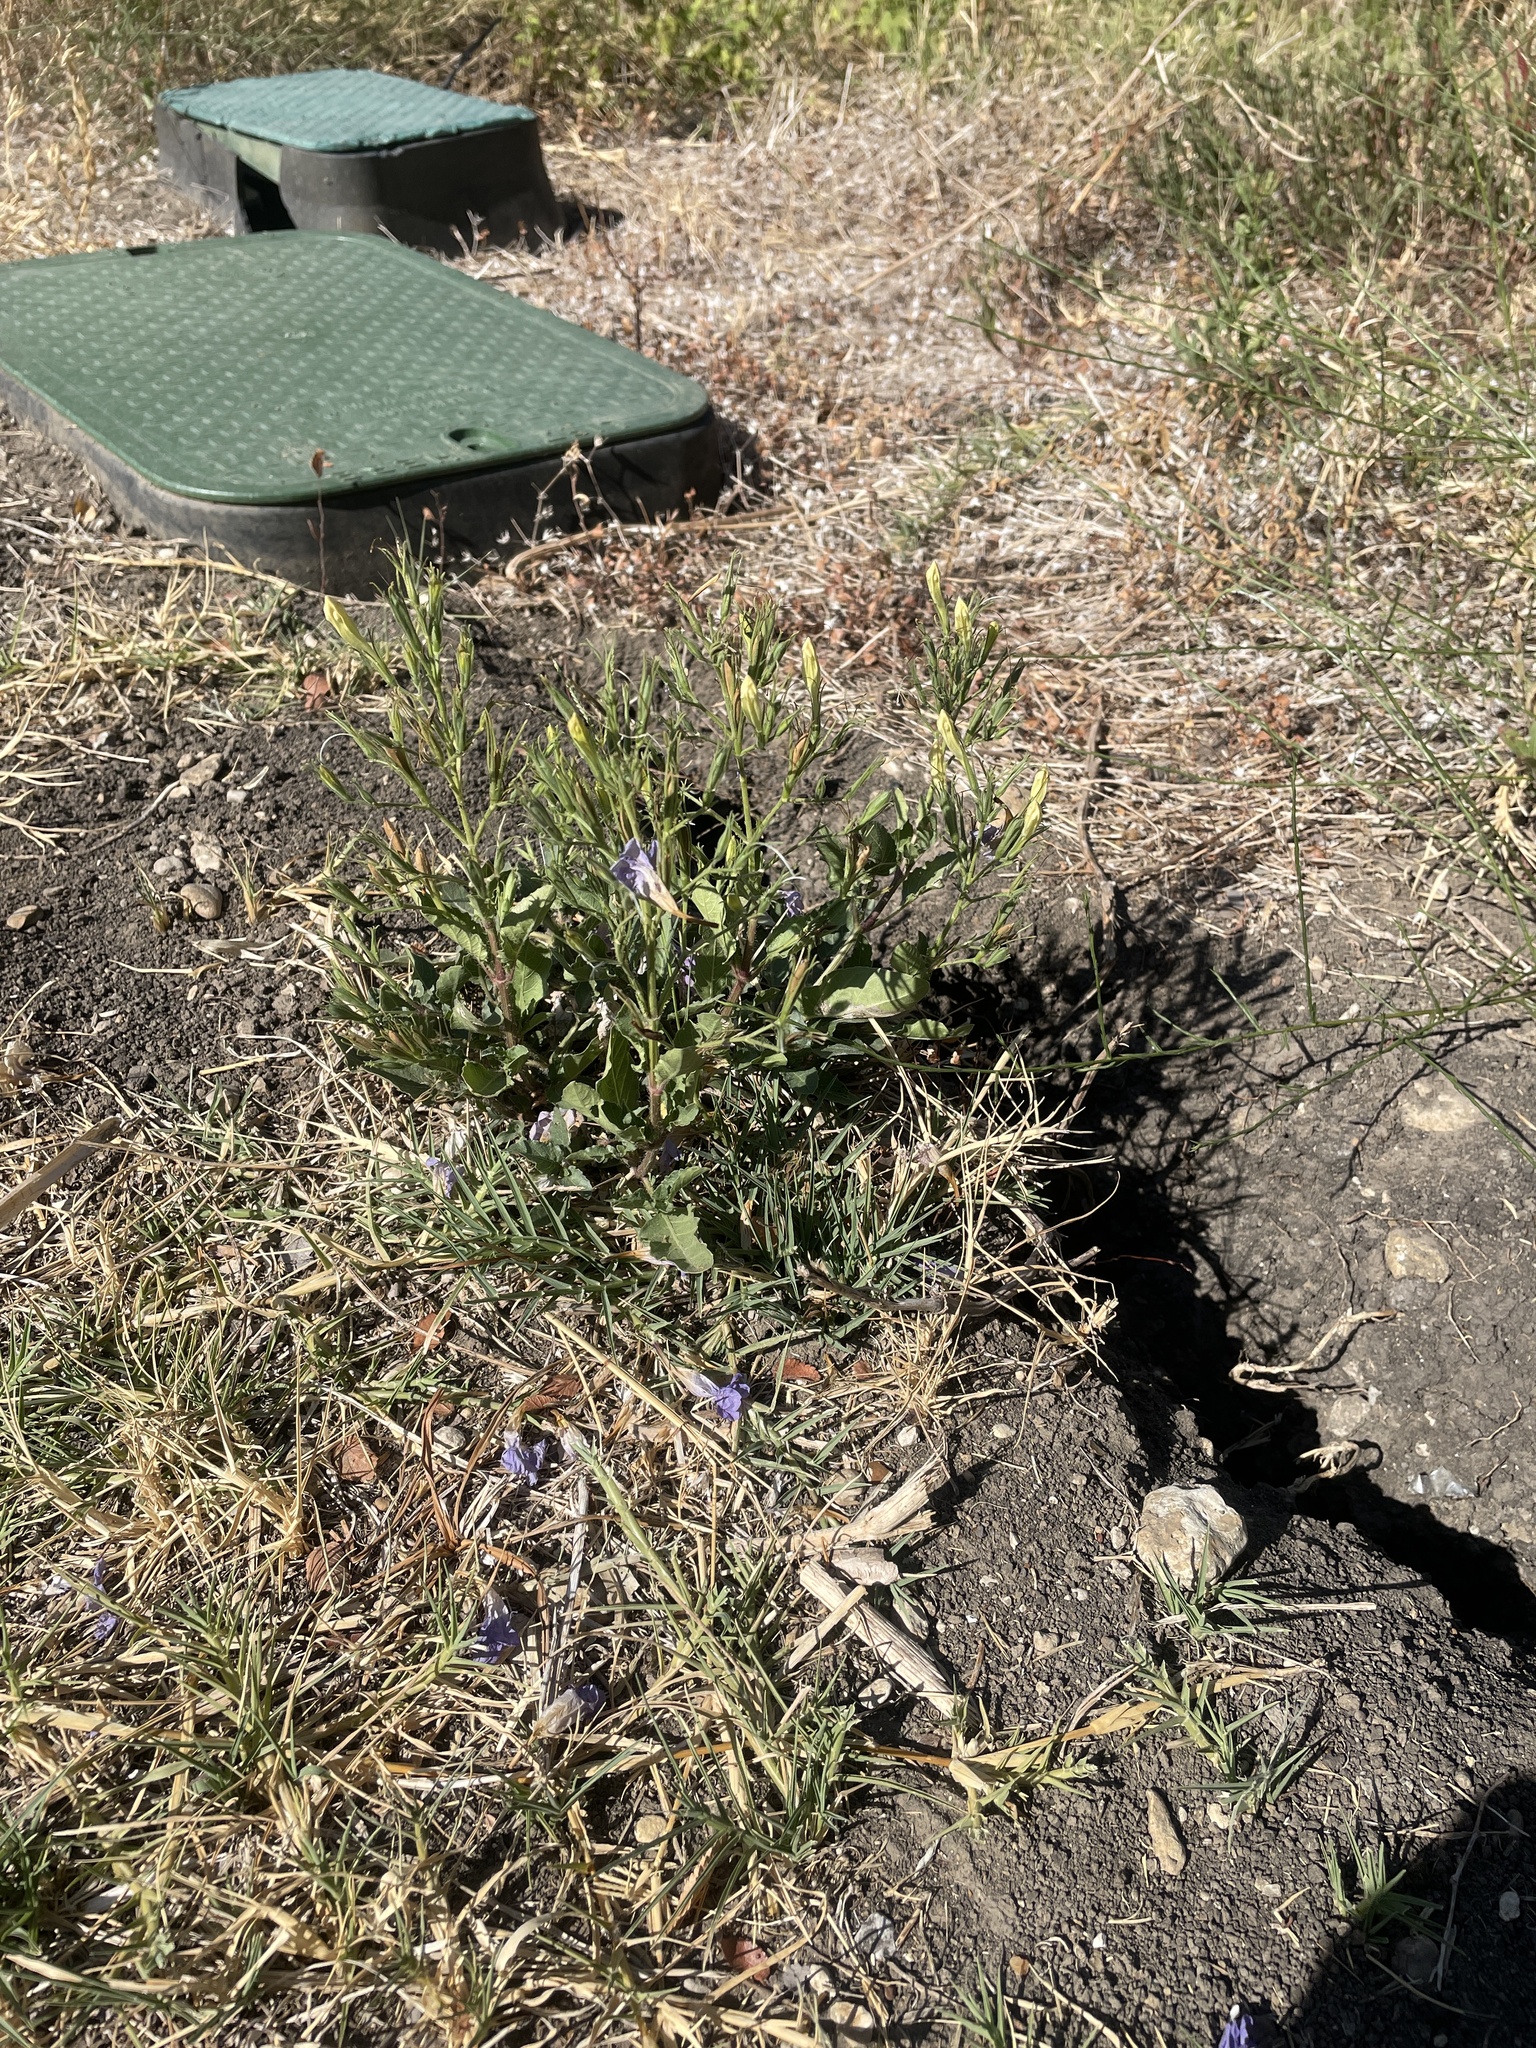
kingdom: Plantae
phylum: Tracheophyta
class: Magnoliopsida
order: Lamiales
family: Acanthaceae
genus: Ruellia
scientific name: Ruellia ciliatiflora
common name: Hairyflower wild petunia
